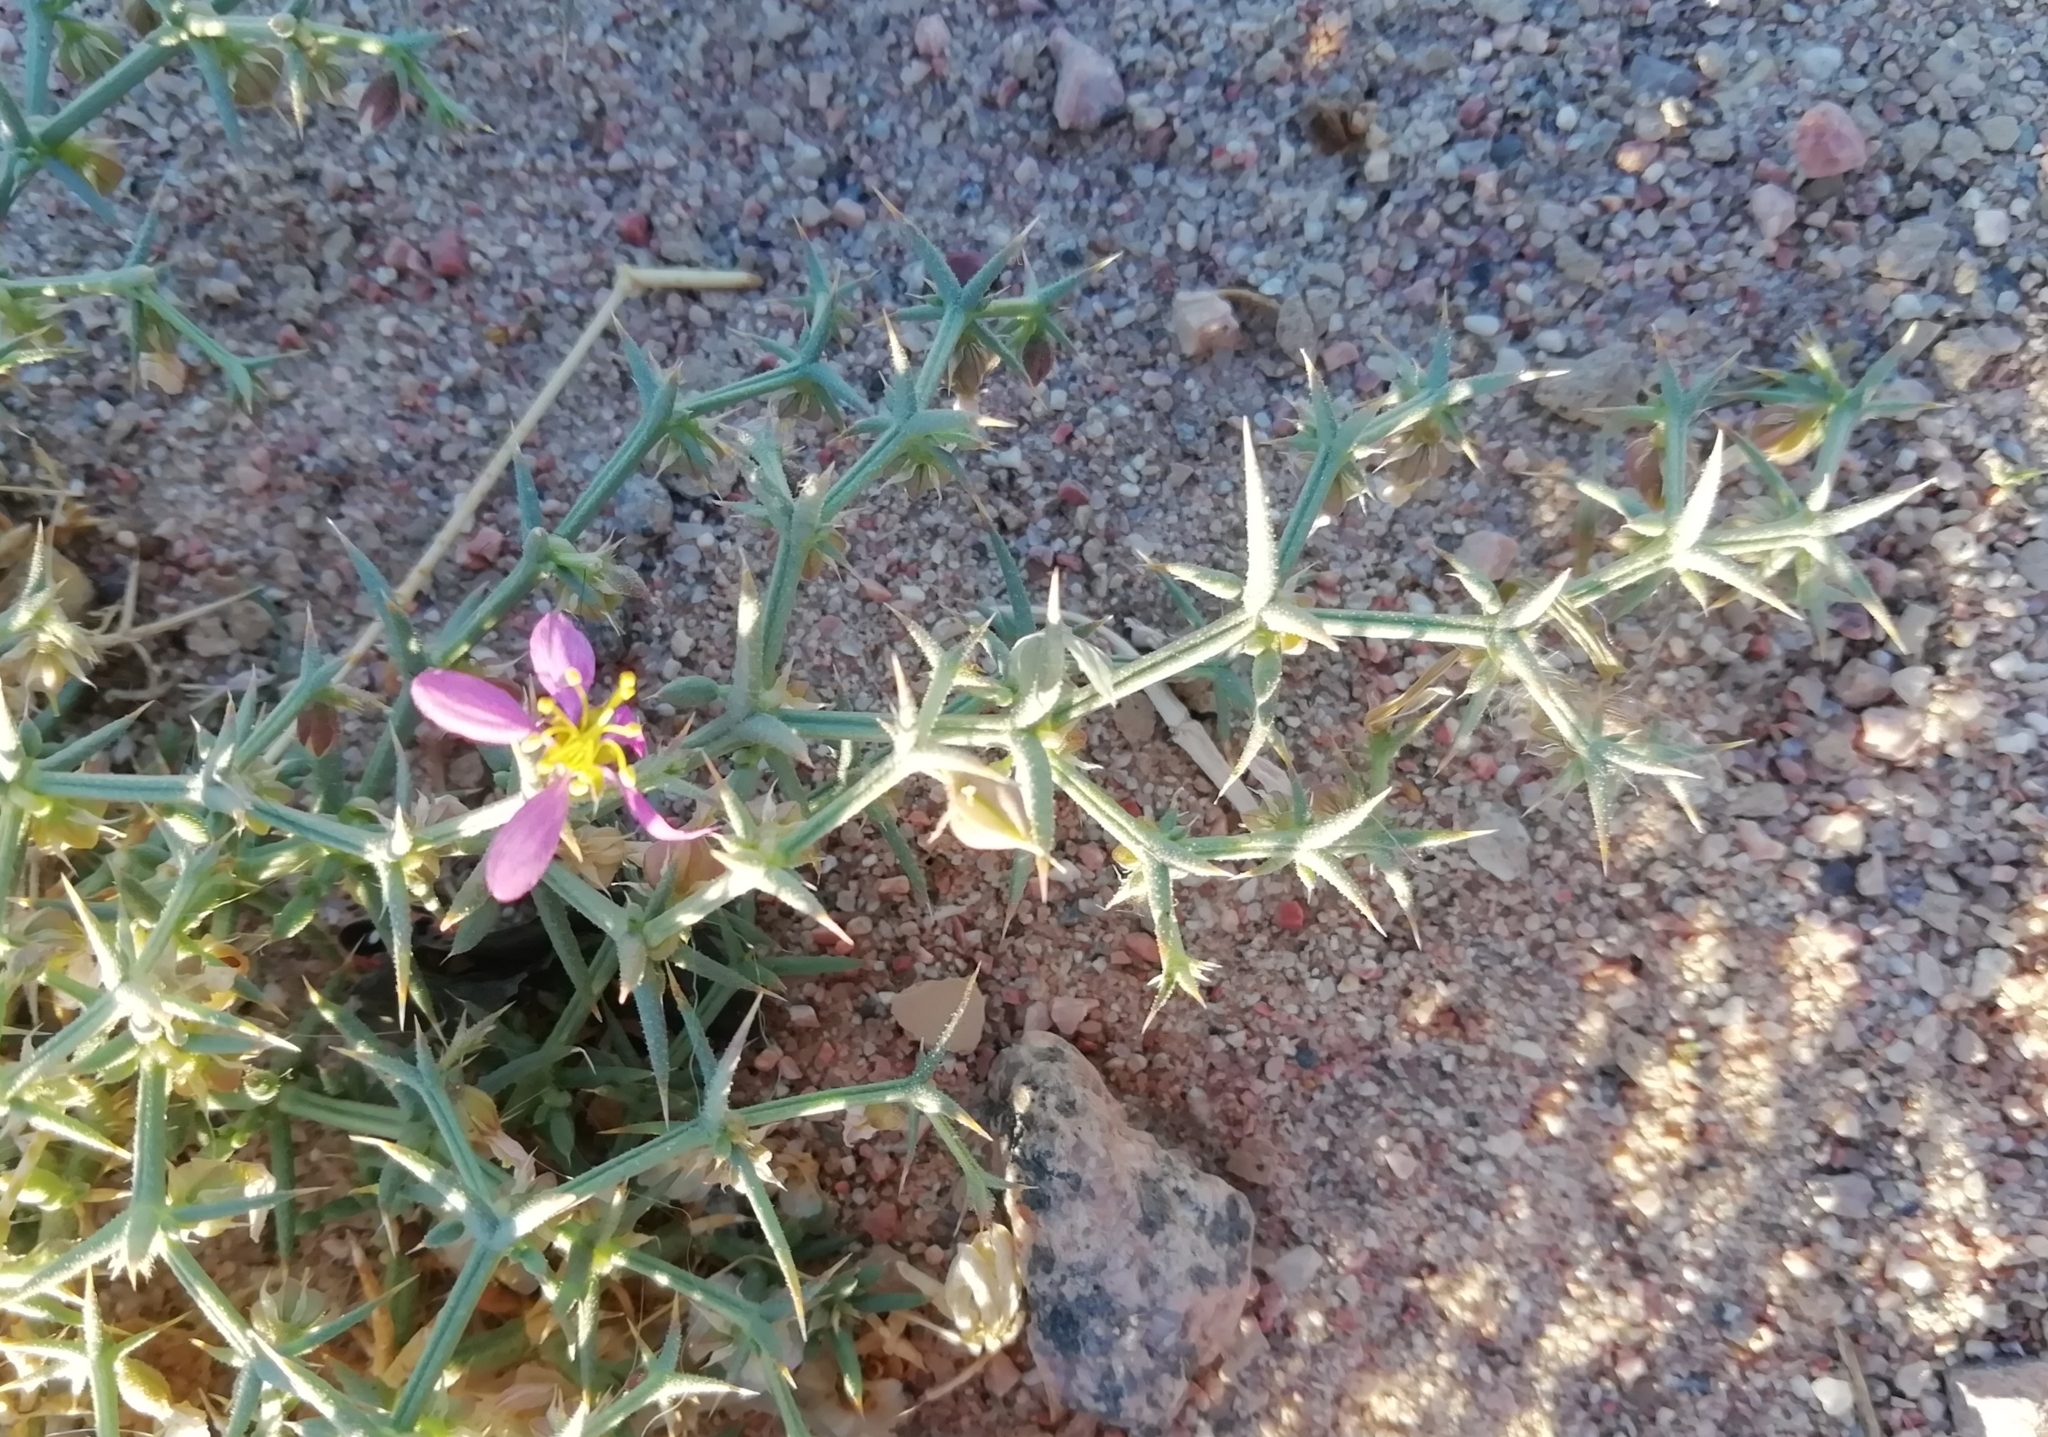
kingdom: Plantae
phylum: Tracheophyta
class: Magnoliopsida
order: Zygophyllales
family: Zygophyllaceae
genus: Fagonia
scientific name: Fagonia bruguieri
